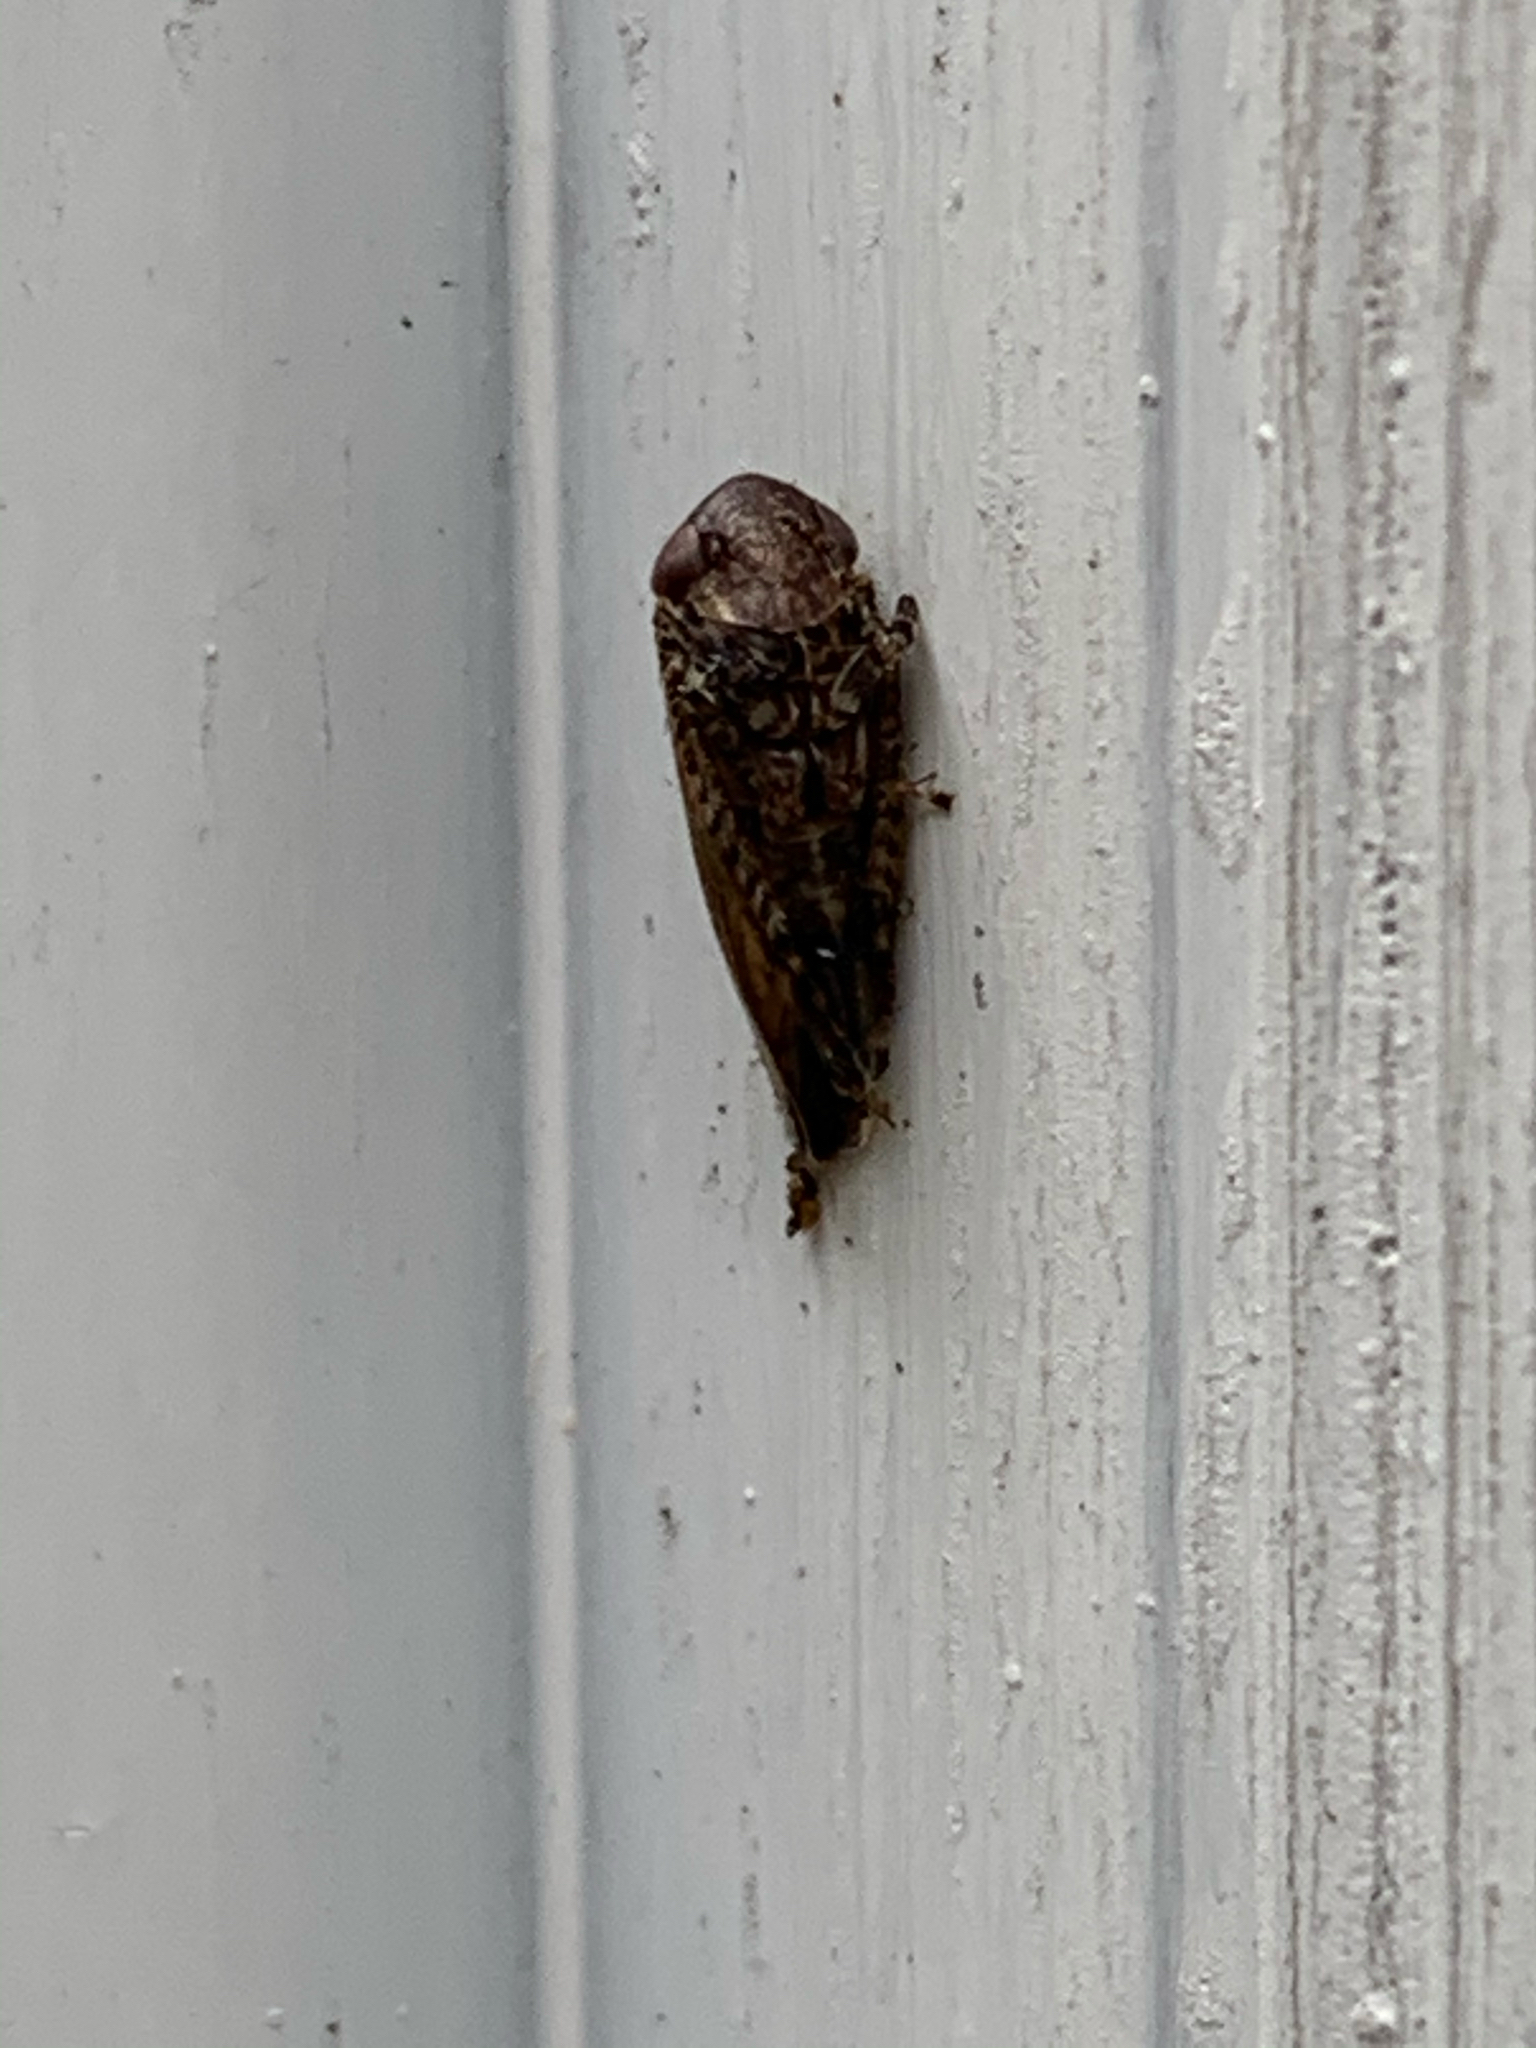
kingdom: Animalia
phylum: Arthropoda
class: Insecta
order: Hemiptera
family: Cicadellidae
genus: Paraphlepsius
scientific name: Paraphlepsius
